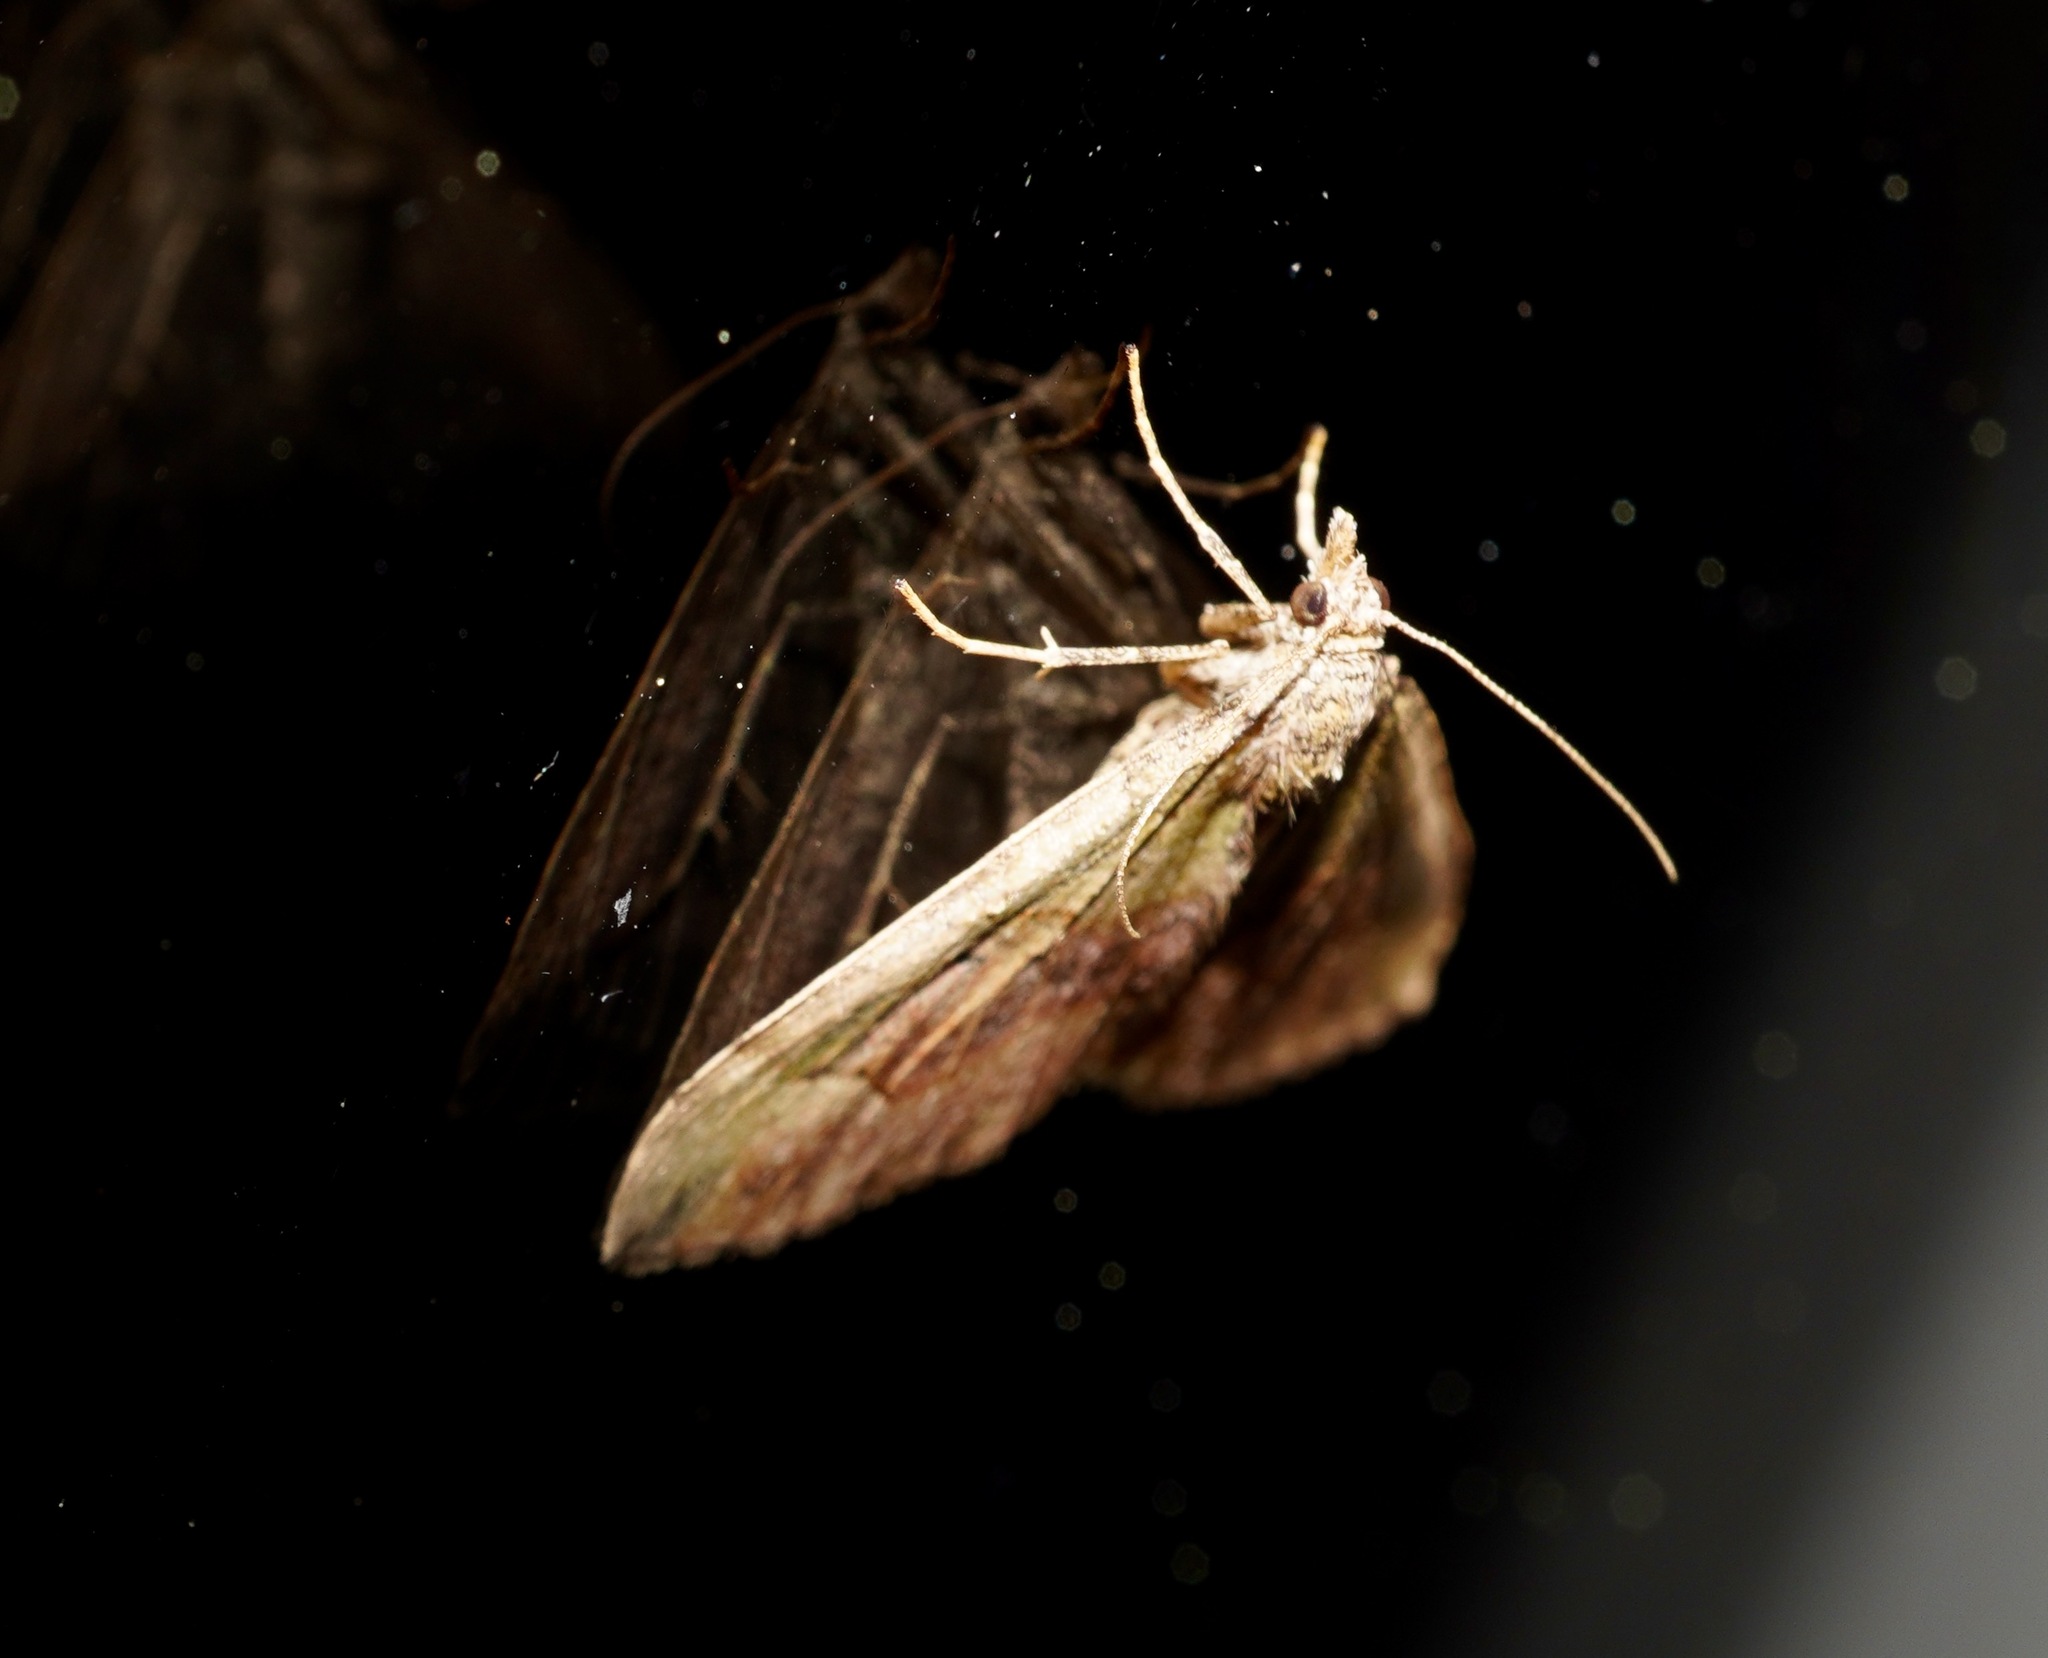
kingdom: Animalia
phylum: Arthropoda
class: Insecta
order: Lepidoptera
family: Geometridae
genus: Epyaxa
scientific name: Epyaxa rosearia
